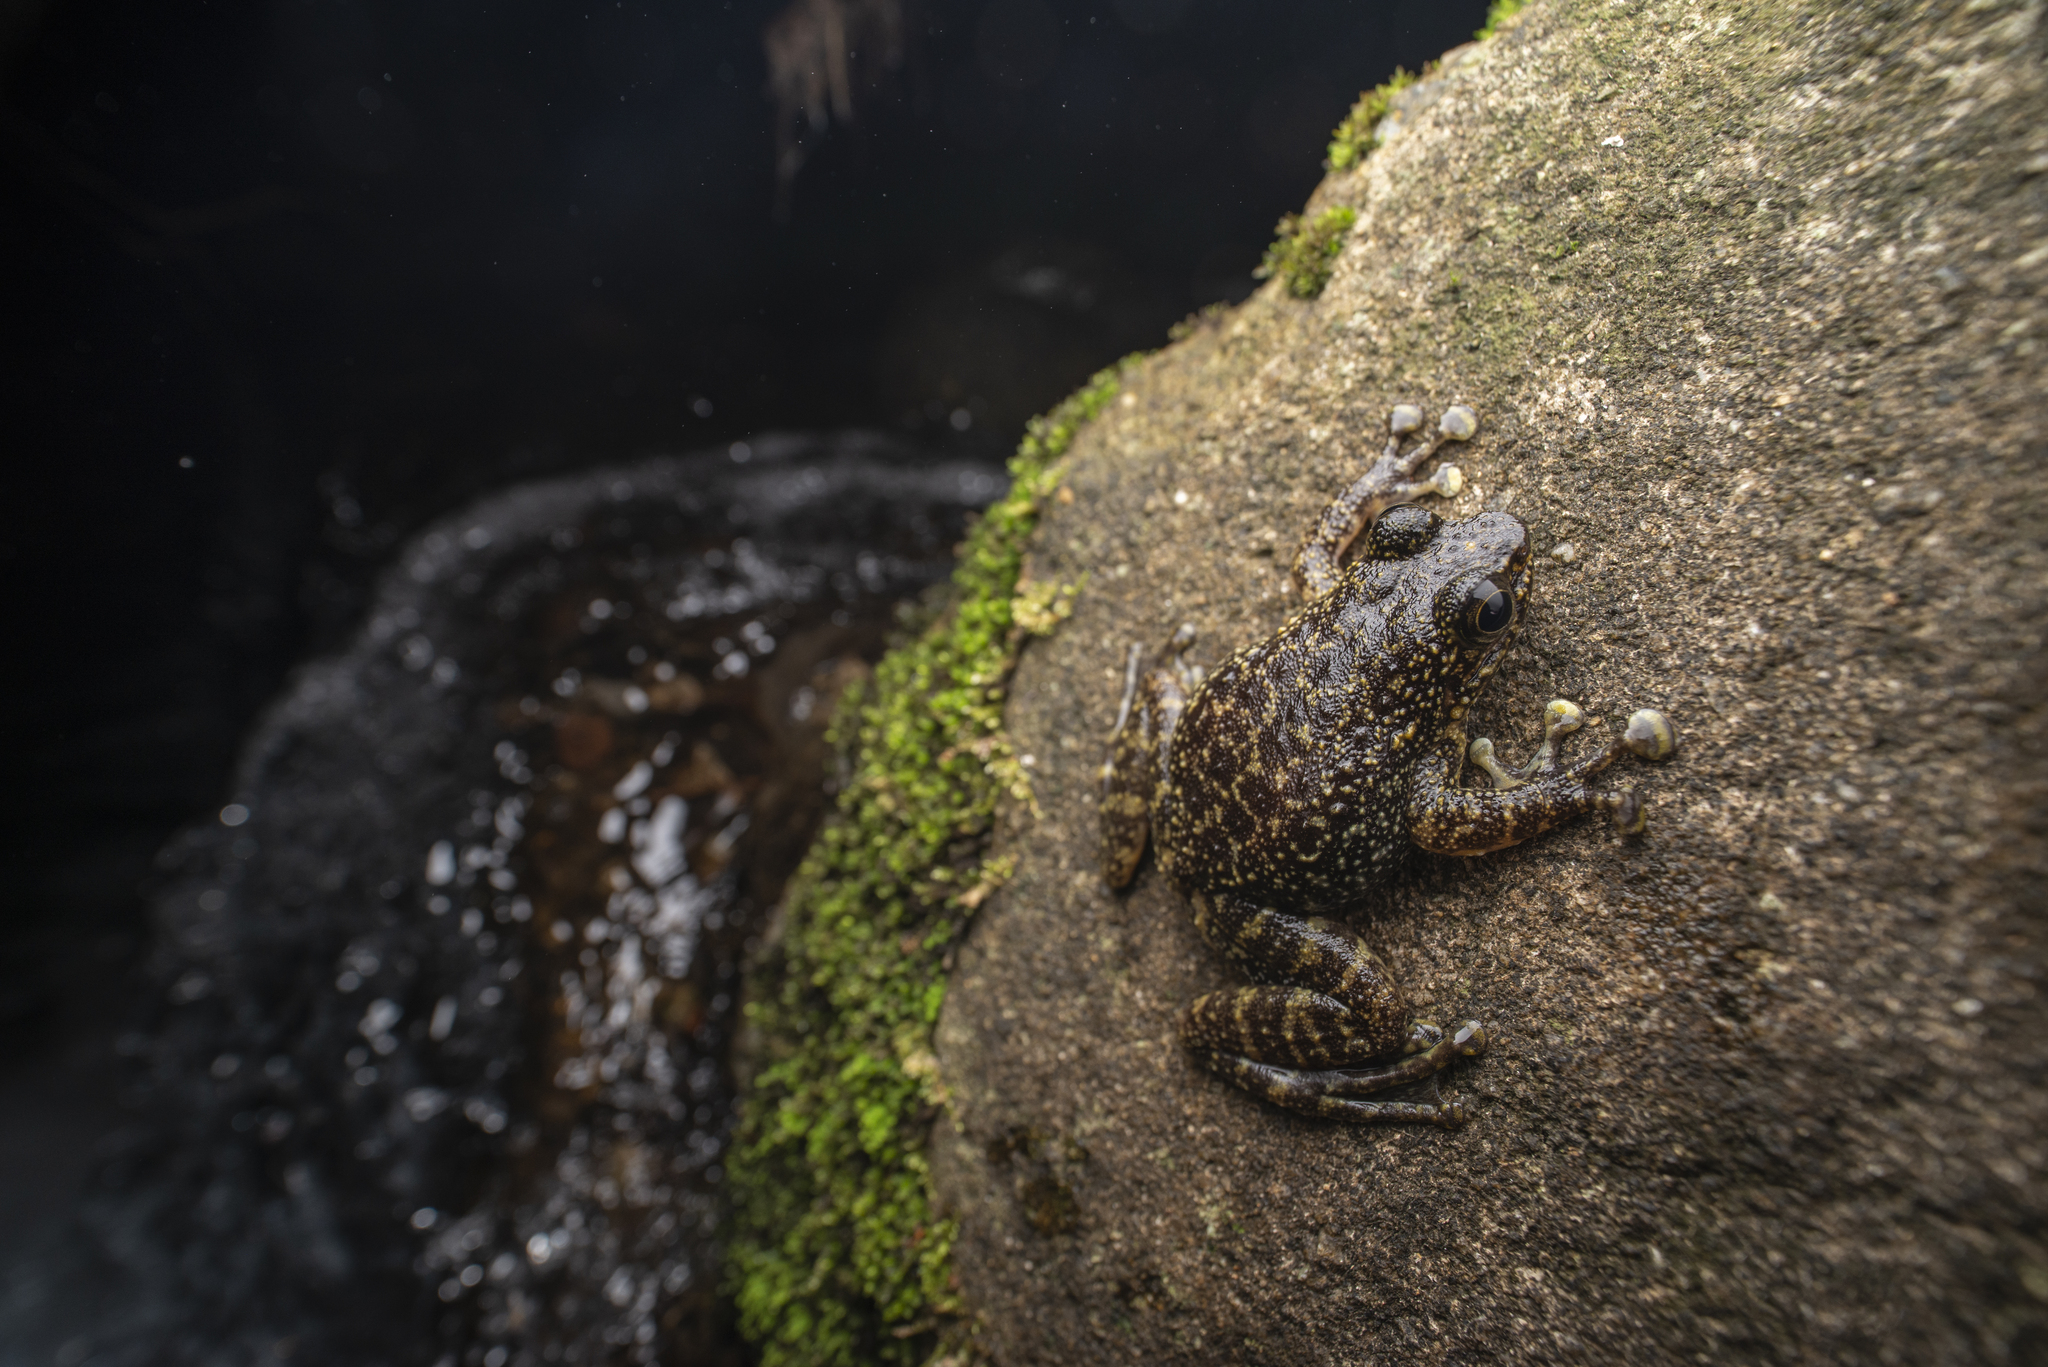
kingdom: Animalia
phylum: Chordata
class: Amphibia
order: Anura
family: Ranidae
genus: Amolops
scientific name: Amolops hongkongensis
